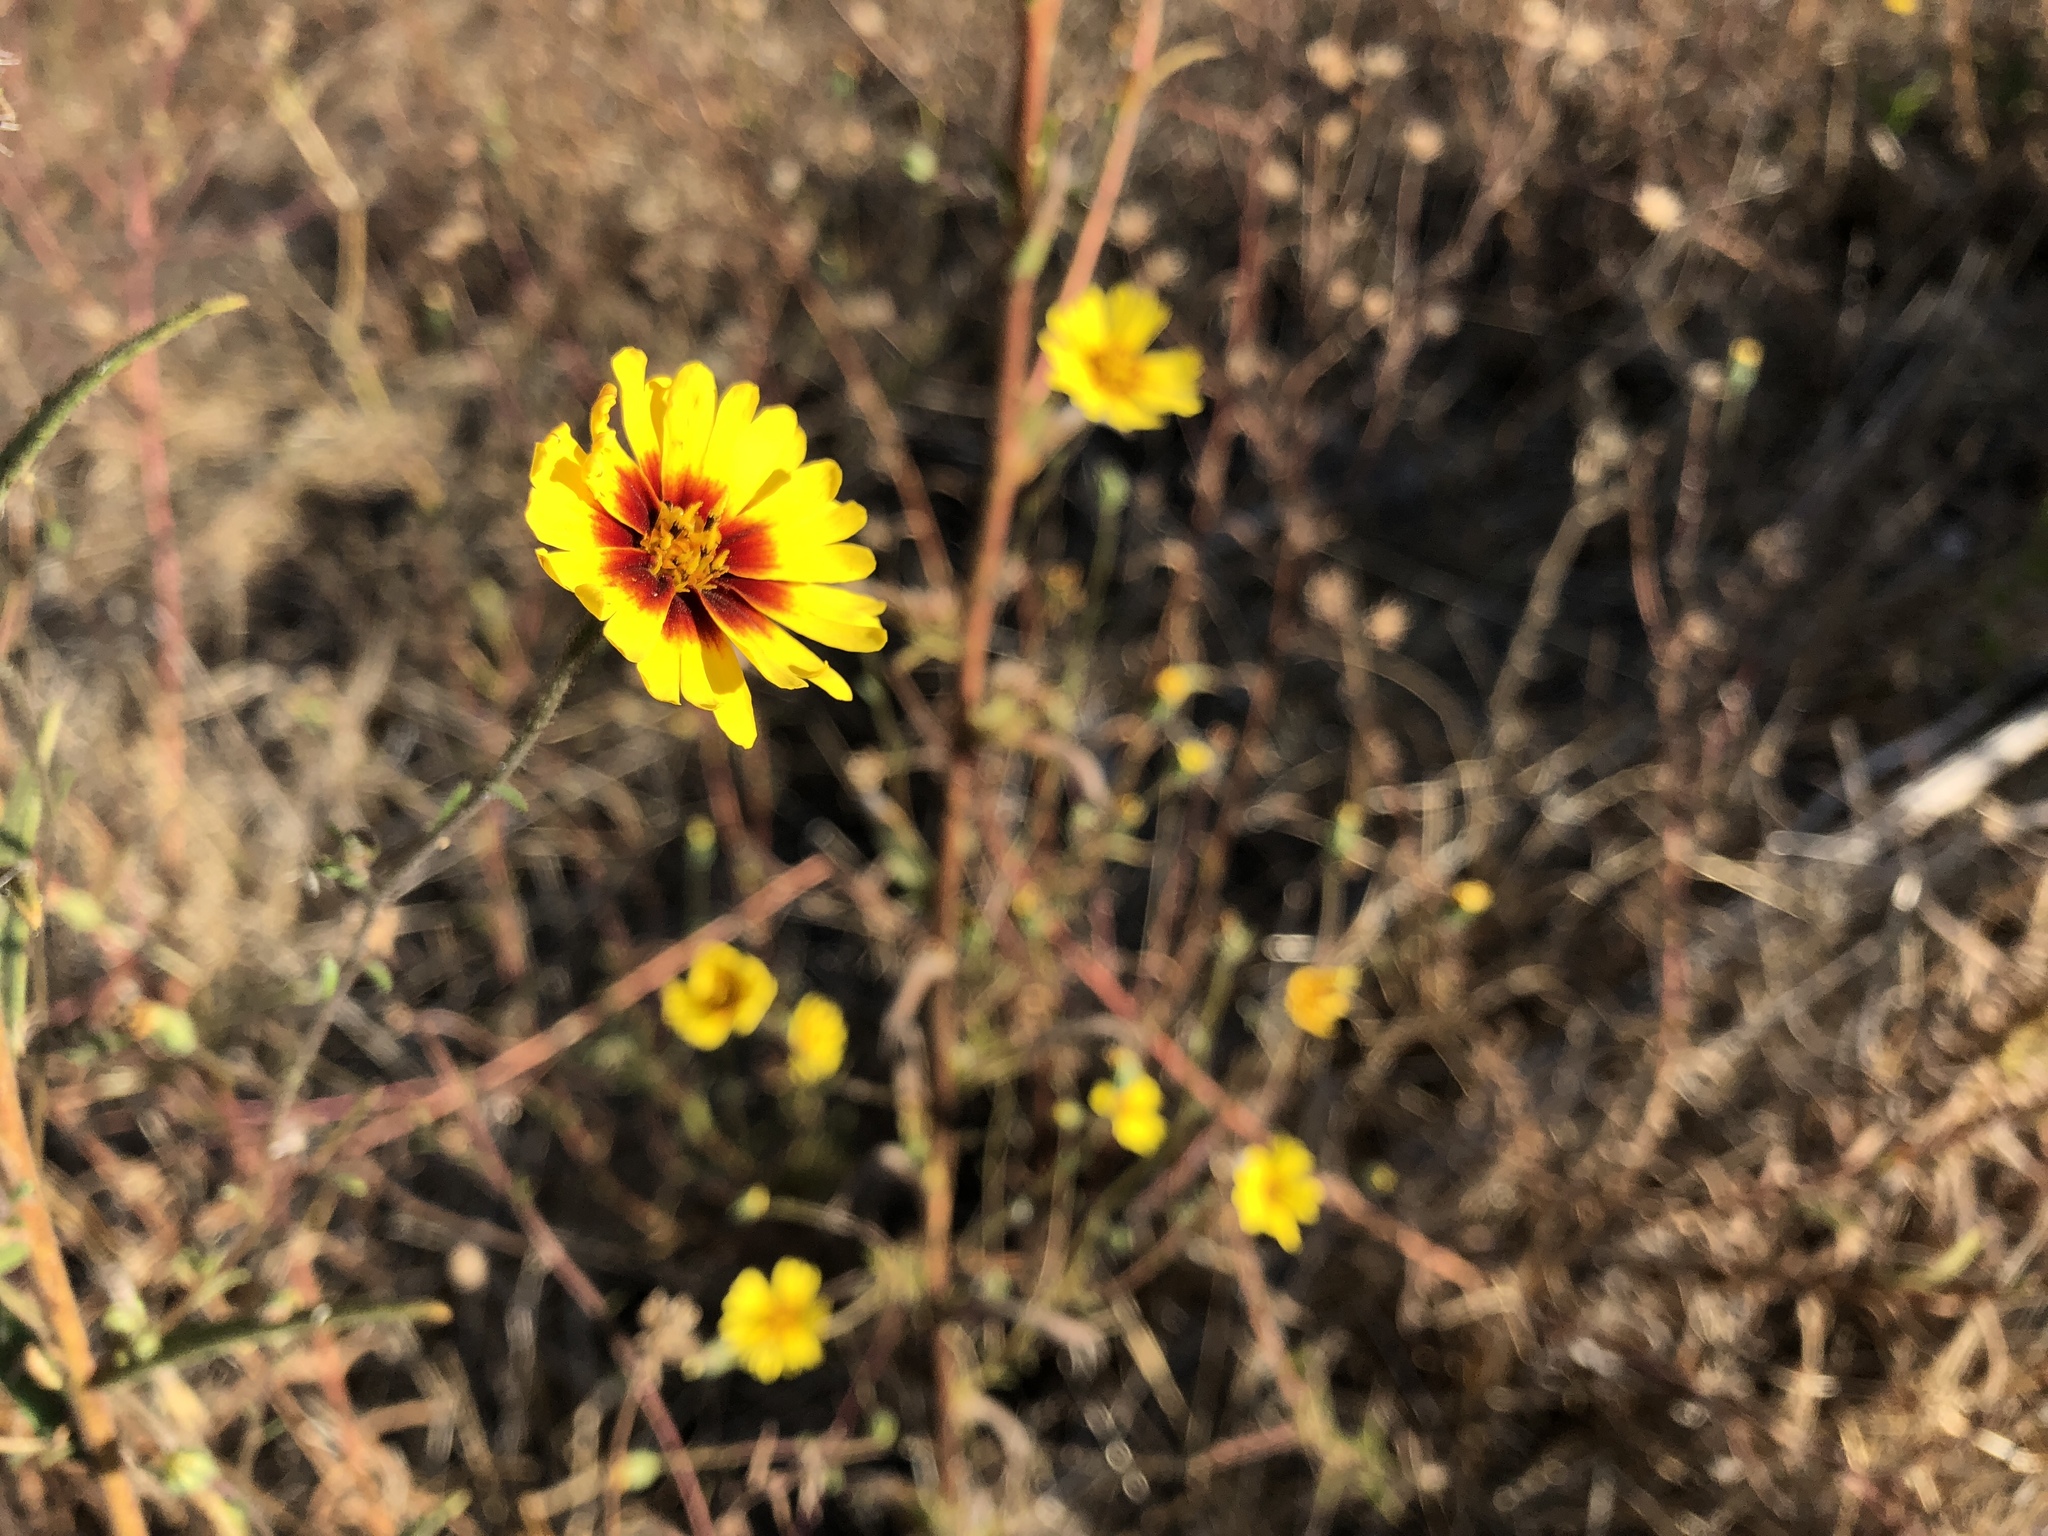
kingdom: Plantae
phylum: Tracheophyta
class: Magnoliopsida
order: Asterales
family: Asteraceae
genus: Madia
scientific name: Madia elegans
